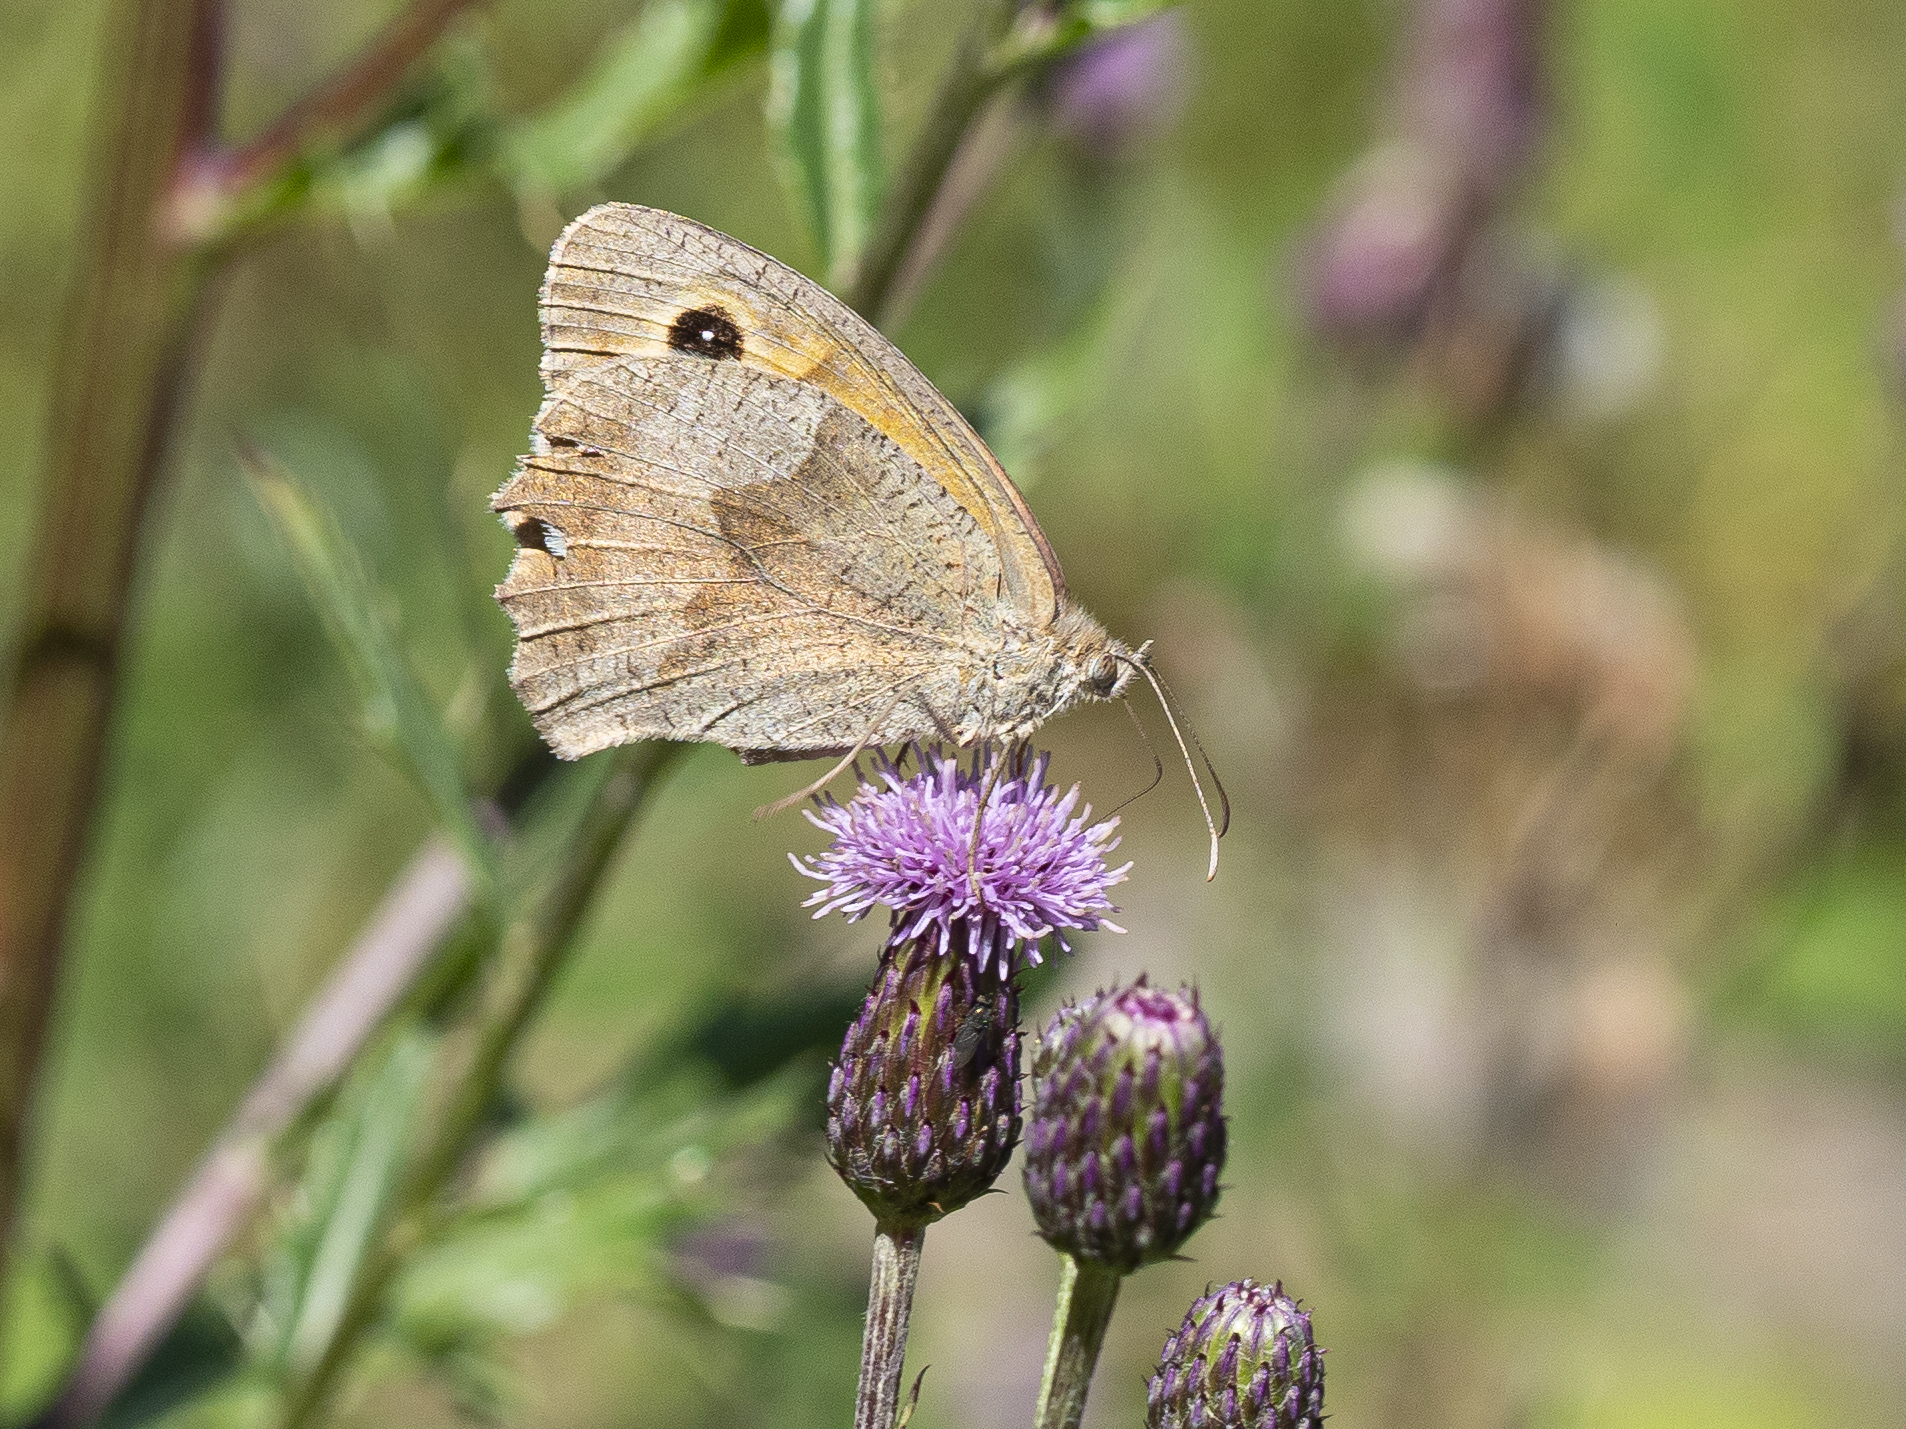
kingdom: Animalia
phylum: Arthropoda
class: Insecta
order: Lepidoptera
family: Nymphalidae
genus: Maniola
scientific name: Maniola jurtina
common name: Meadow brown
